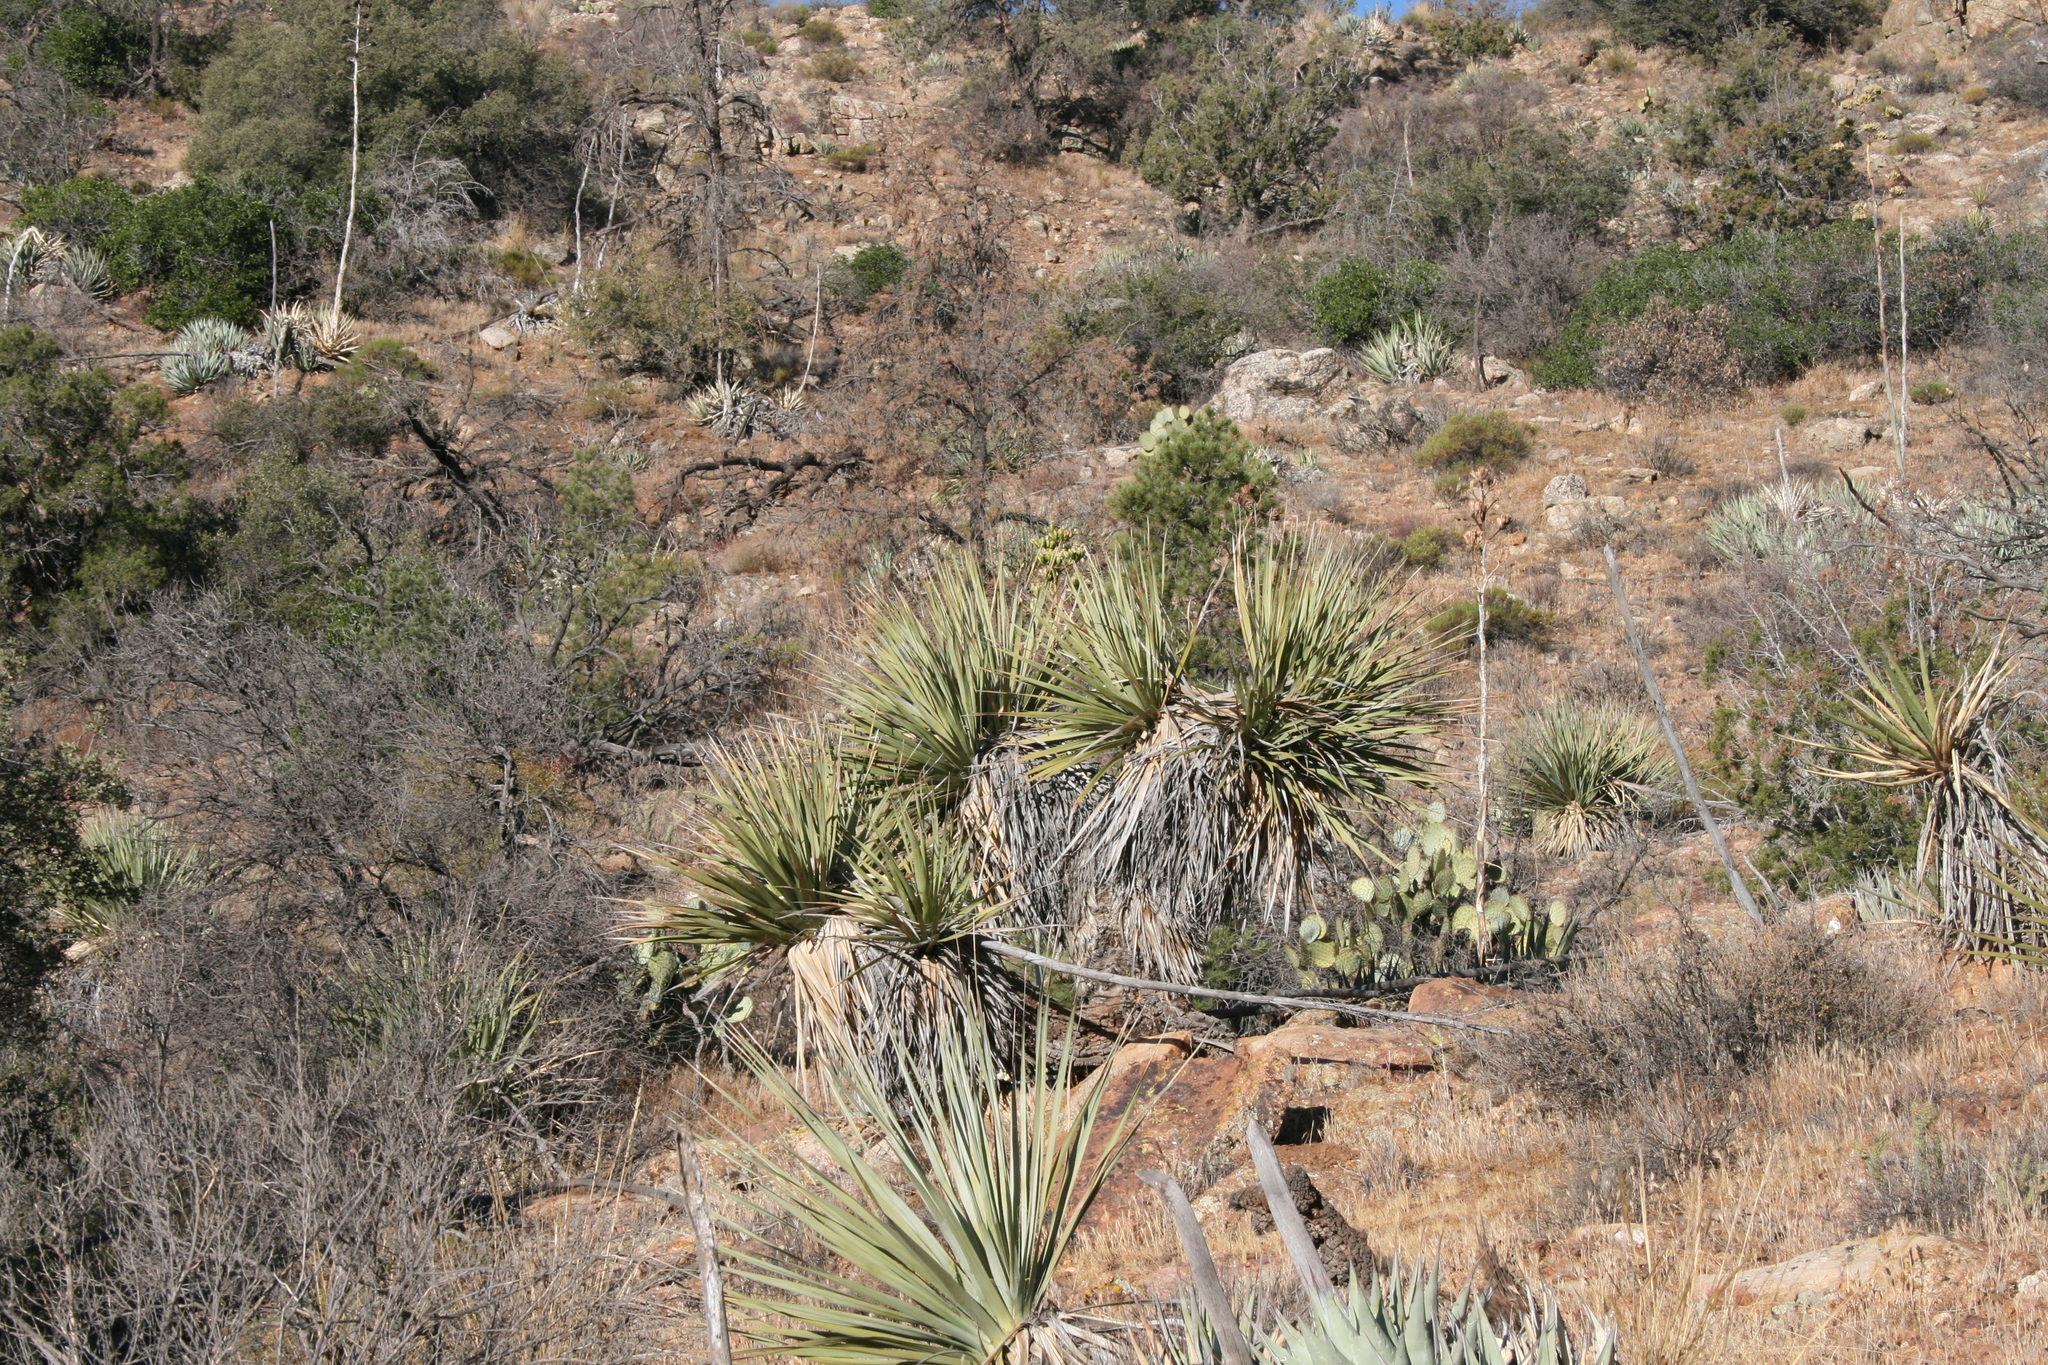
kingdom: Plantae
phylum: Tracheophyta
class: Liliopsida
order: Asparagales
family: Asparagaceae
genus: Nolina
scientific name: Nolina bigelovii
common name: Bigelow bear-grass
